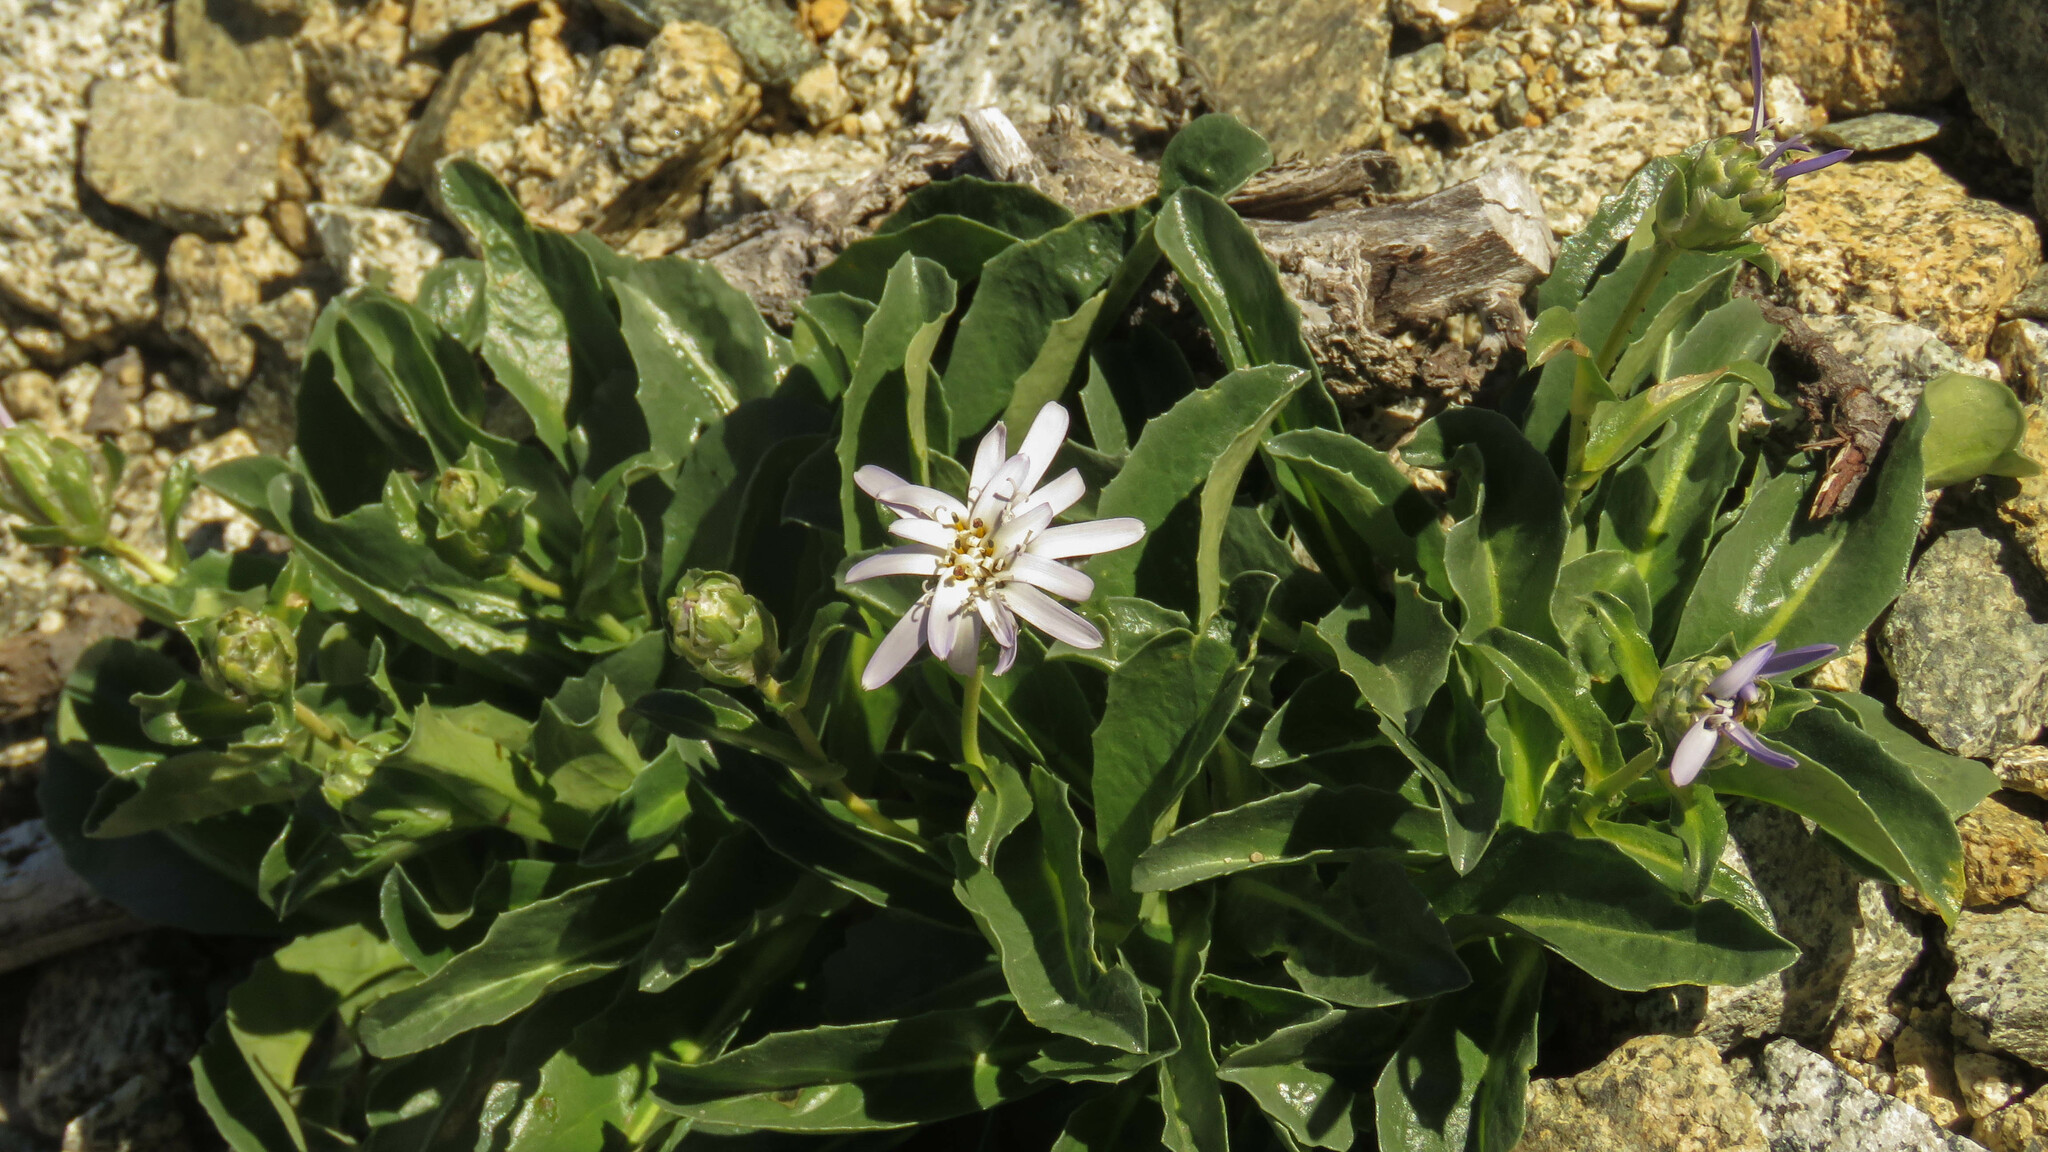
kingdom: Plantae
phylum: Tracheophyta
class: Magnoliopsida
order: Asterales
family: Asteraceae
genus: Perezia
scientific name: Perezia bellidifolia
